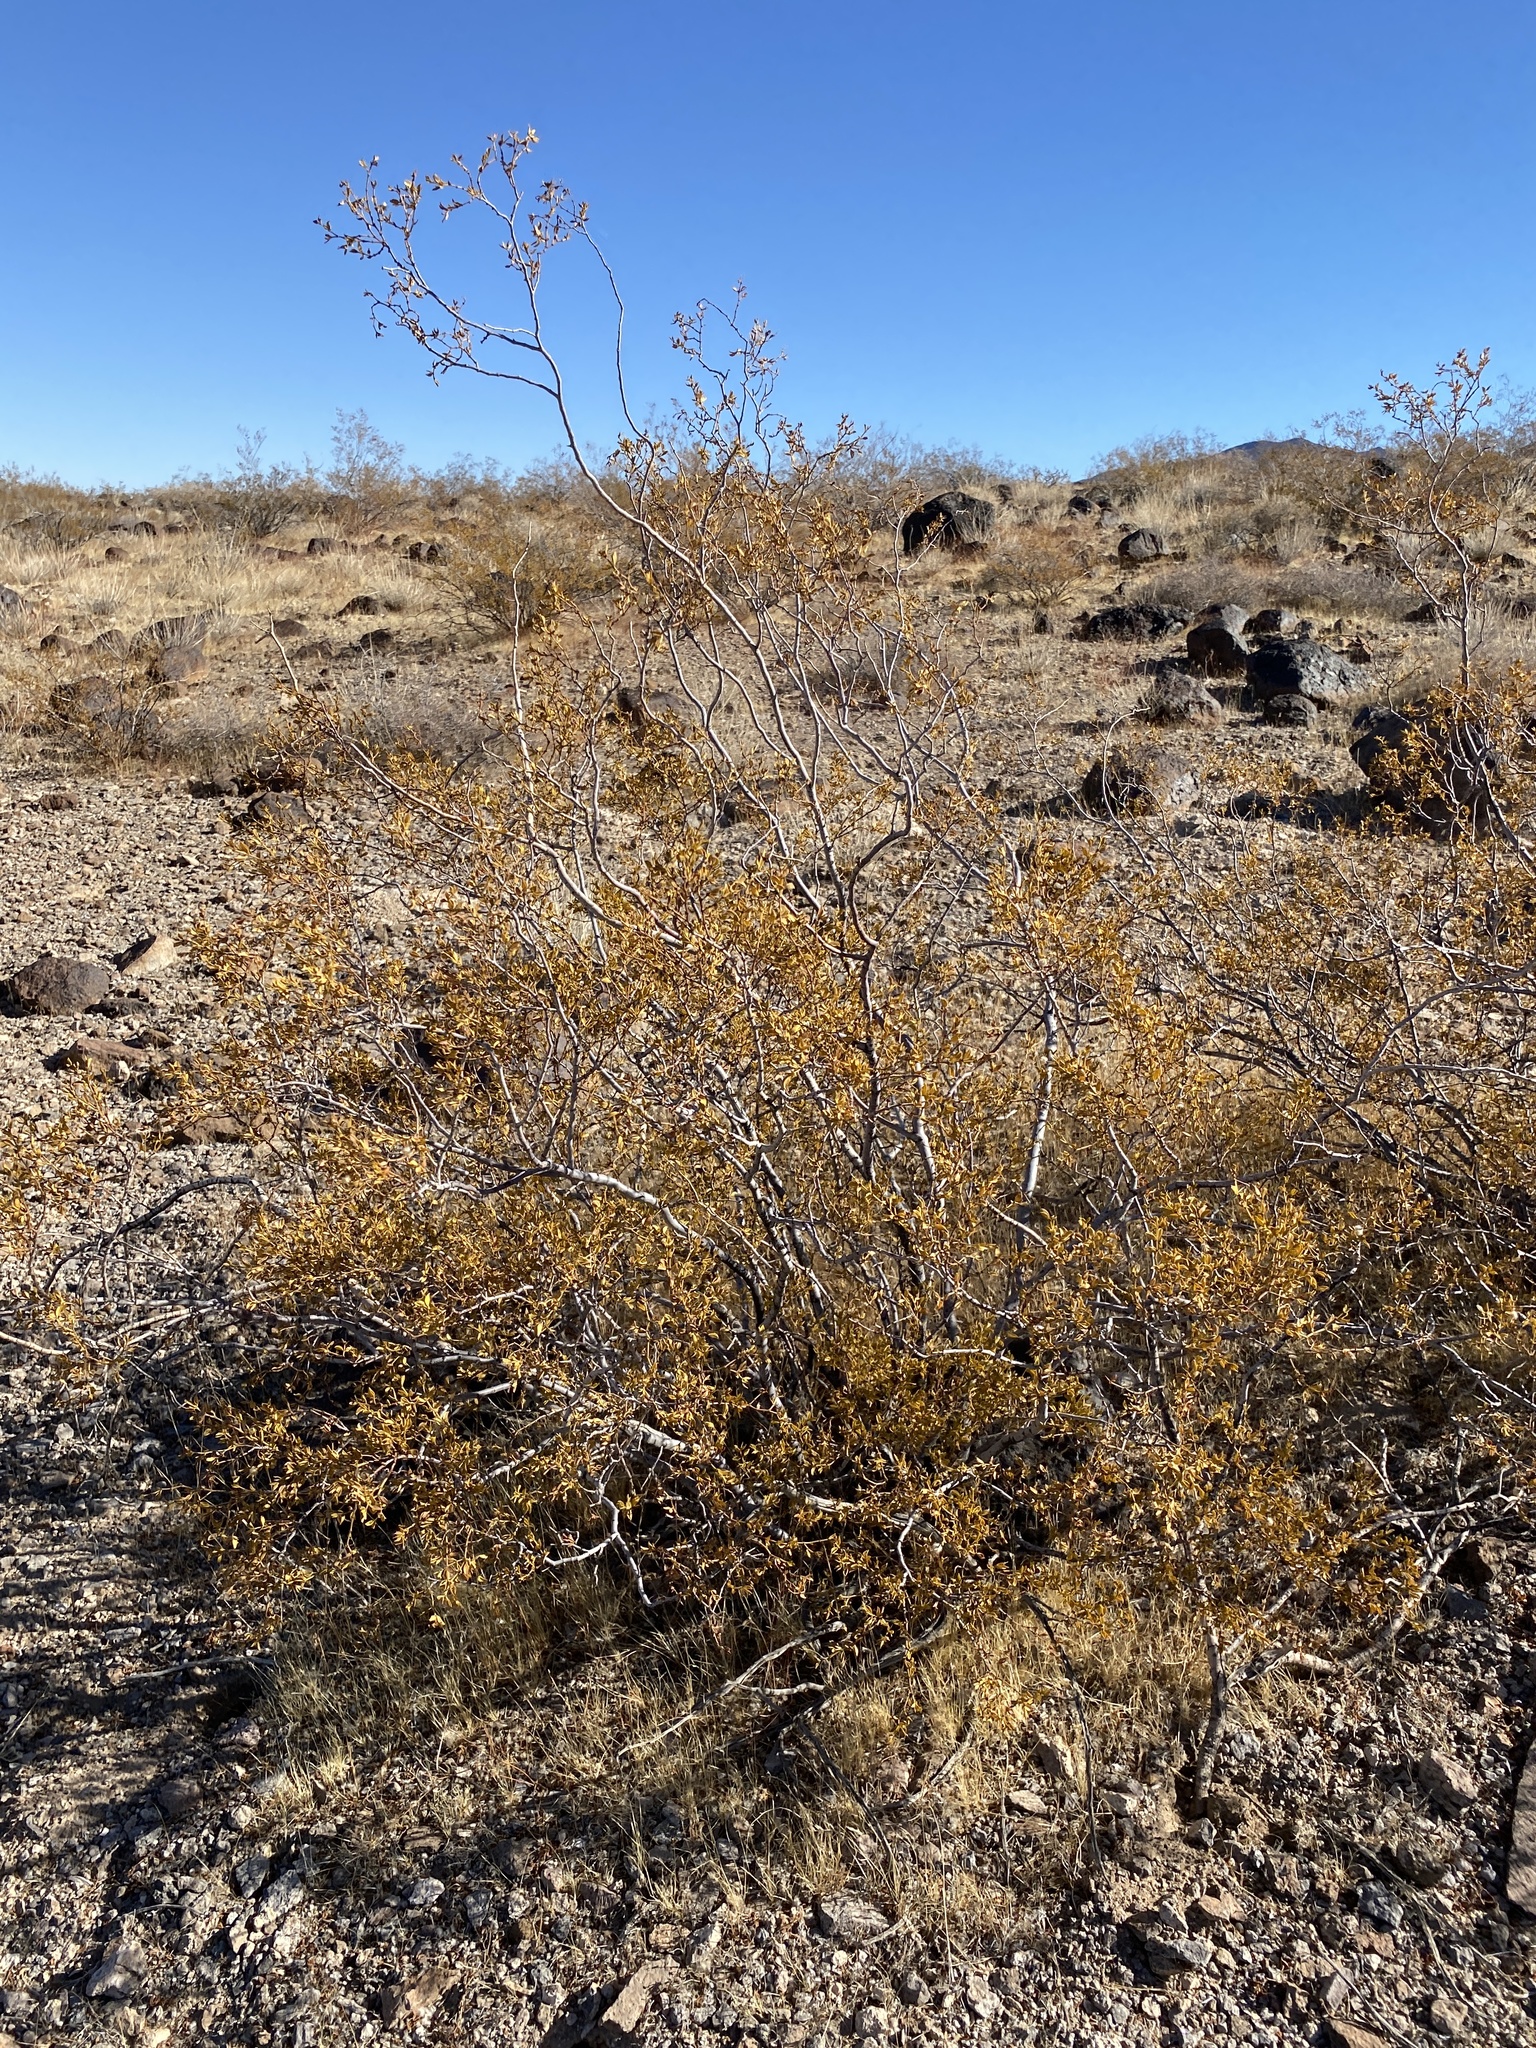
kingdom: Plantae
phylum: Tracheophyta
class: Magnoliopsida
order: Zygophyllales
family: Zygophyllaceae
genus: Larrea
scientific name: Larrea tridentata
